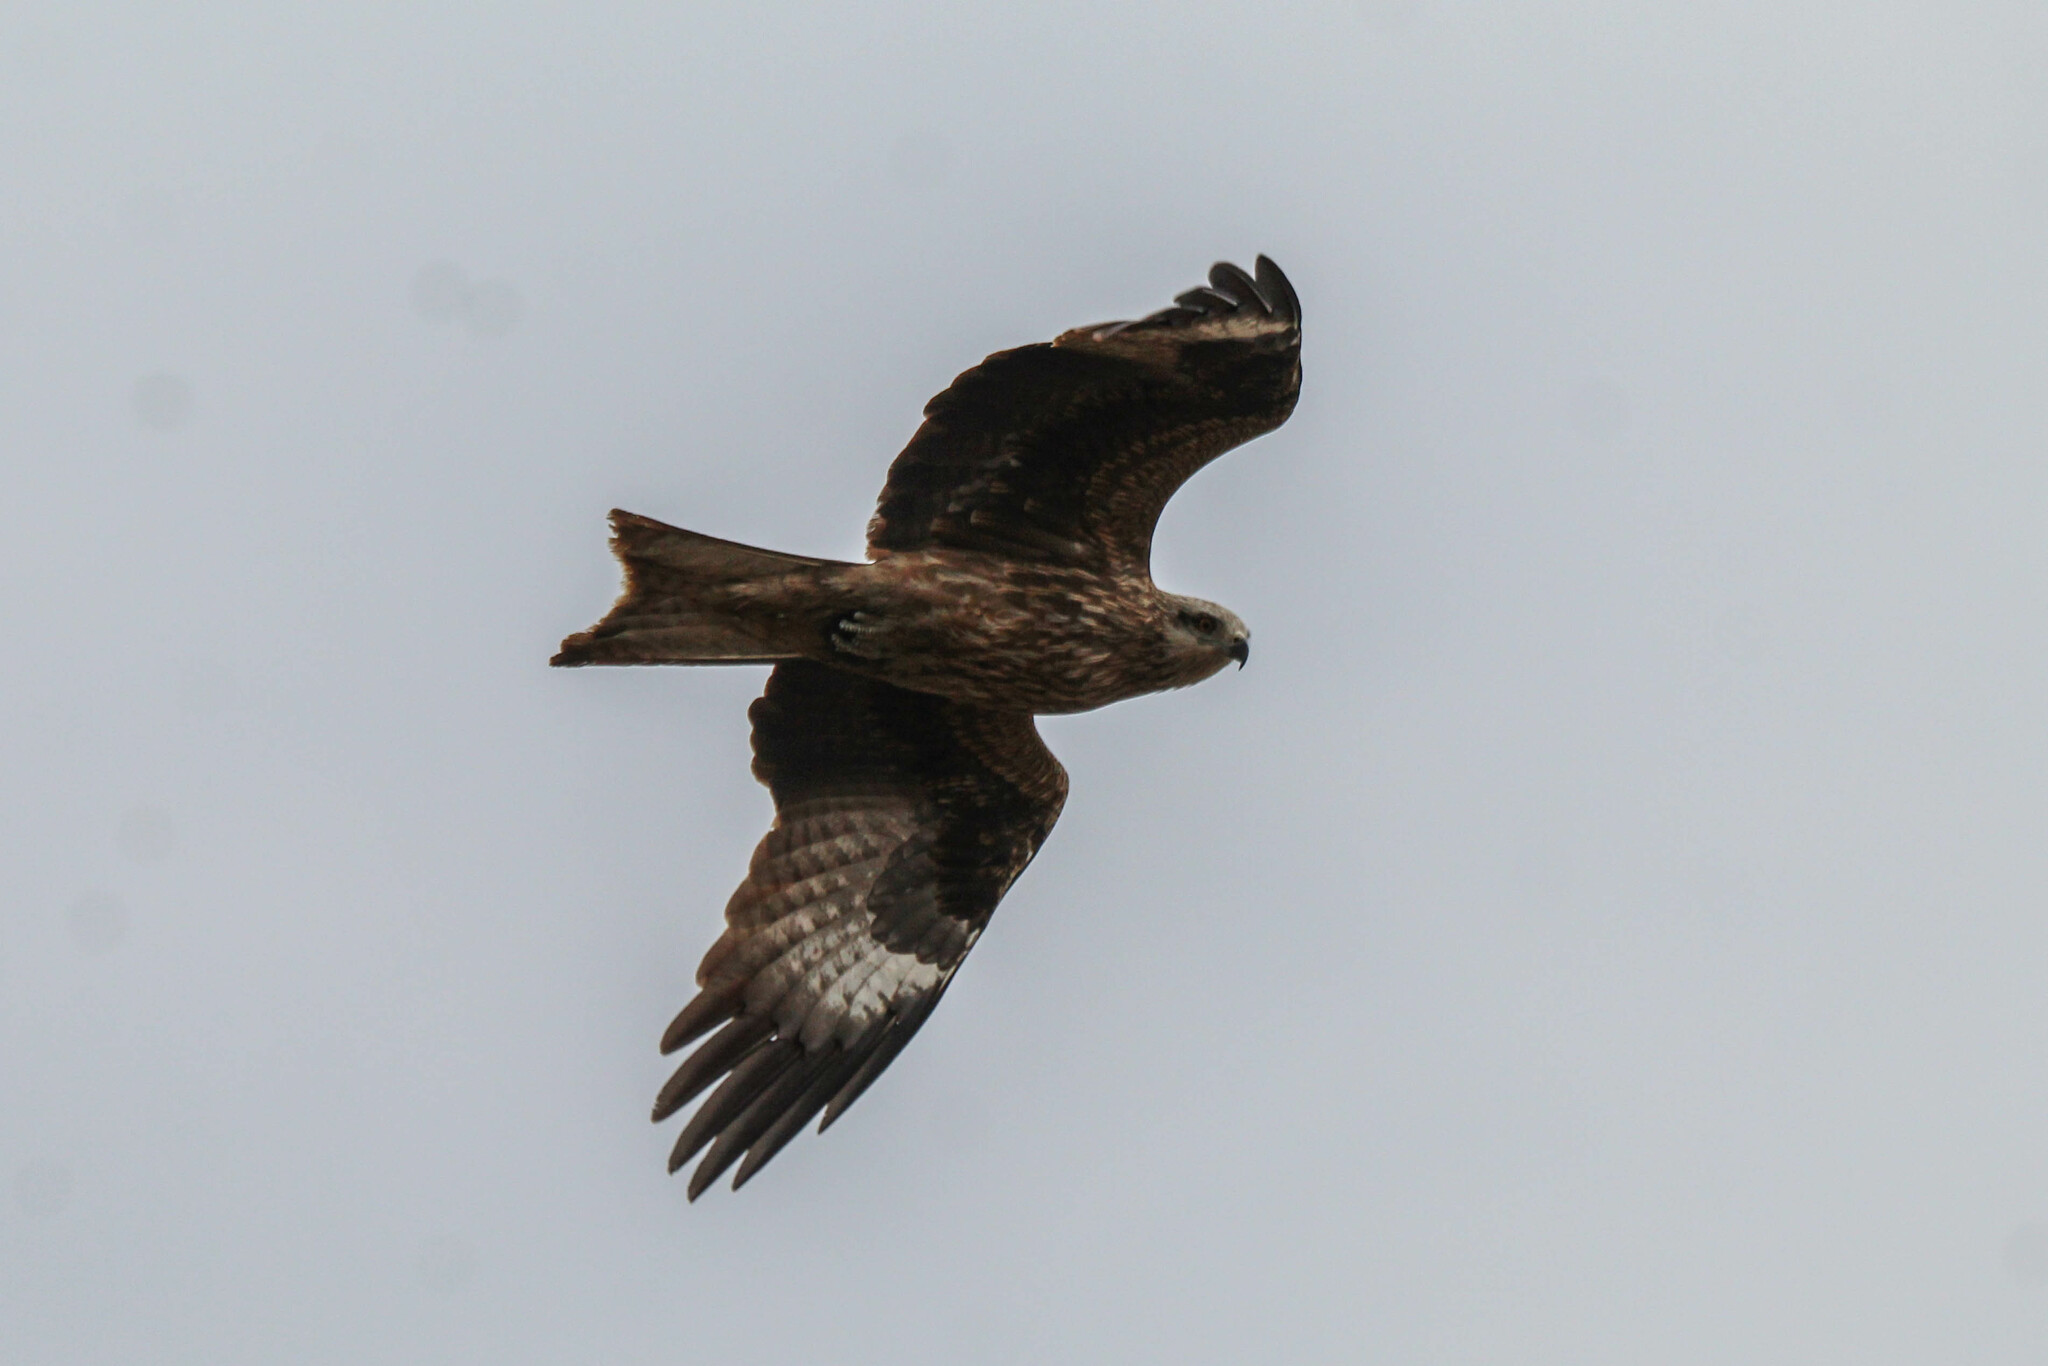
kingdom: Animalia
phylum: Chordata
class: Aves
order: Accipitriformes
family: Accipitridae
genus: Milvus
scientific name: Milvus migrans
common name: Black kite
